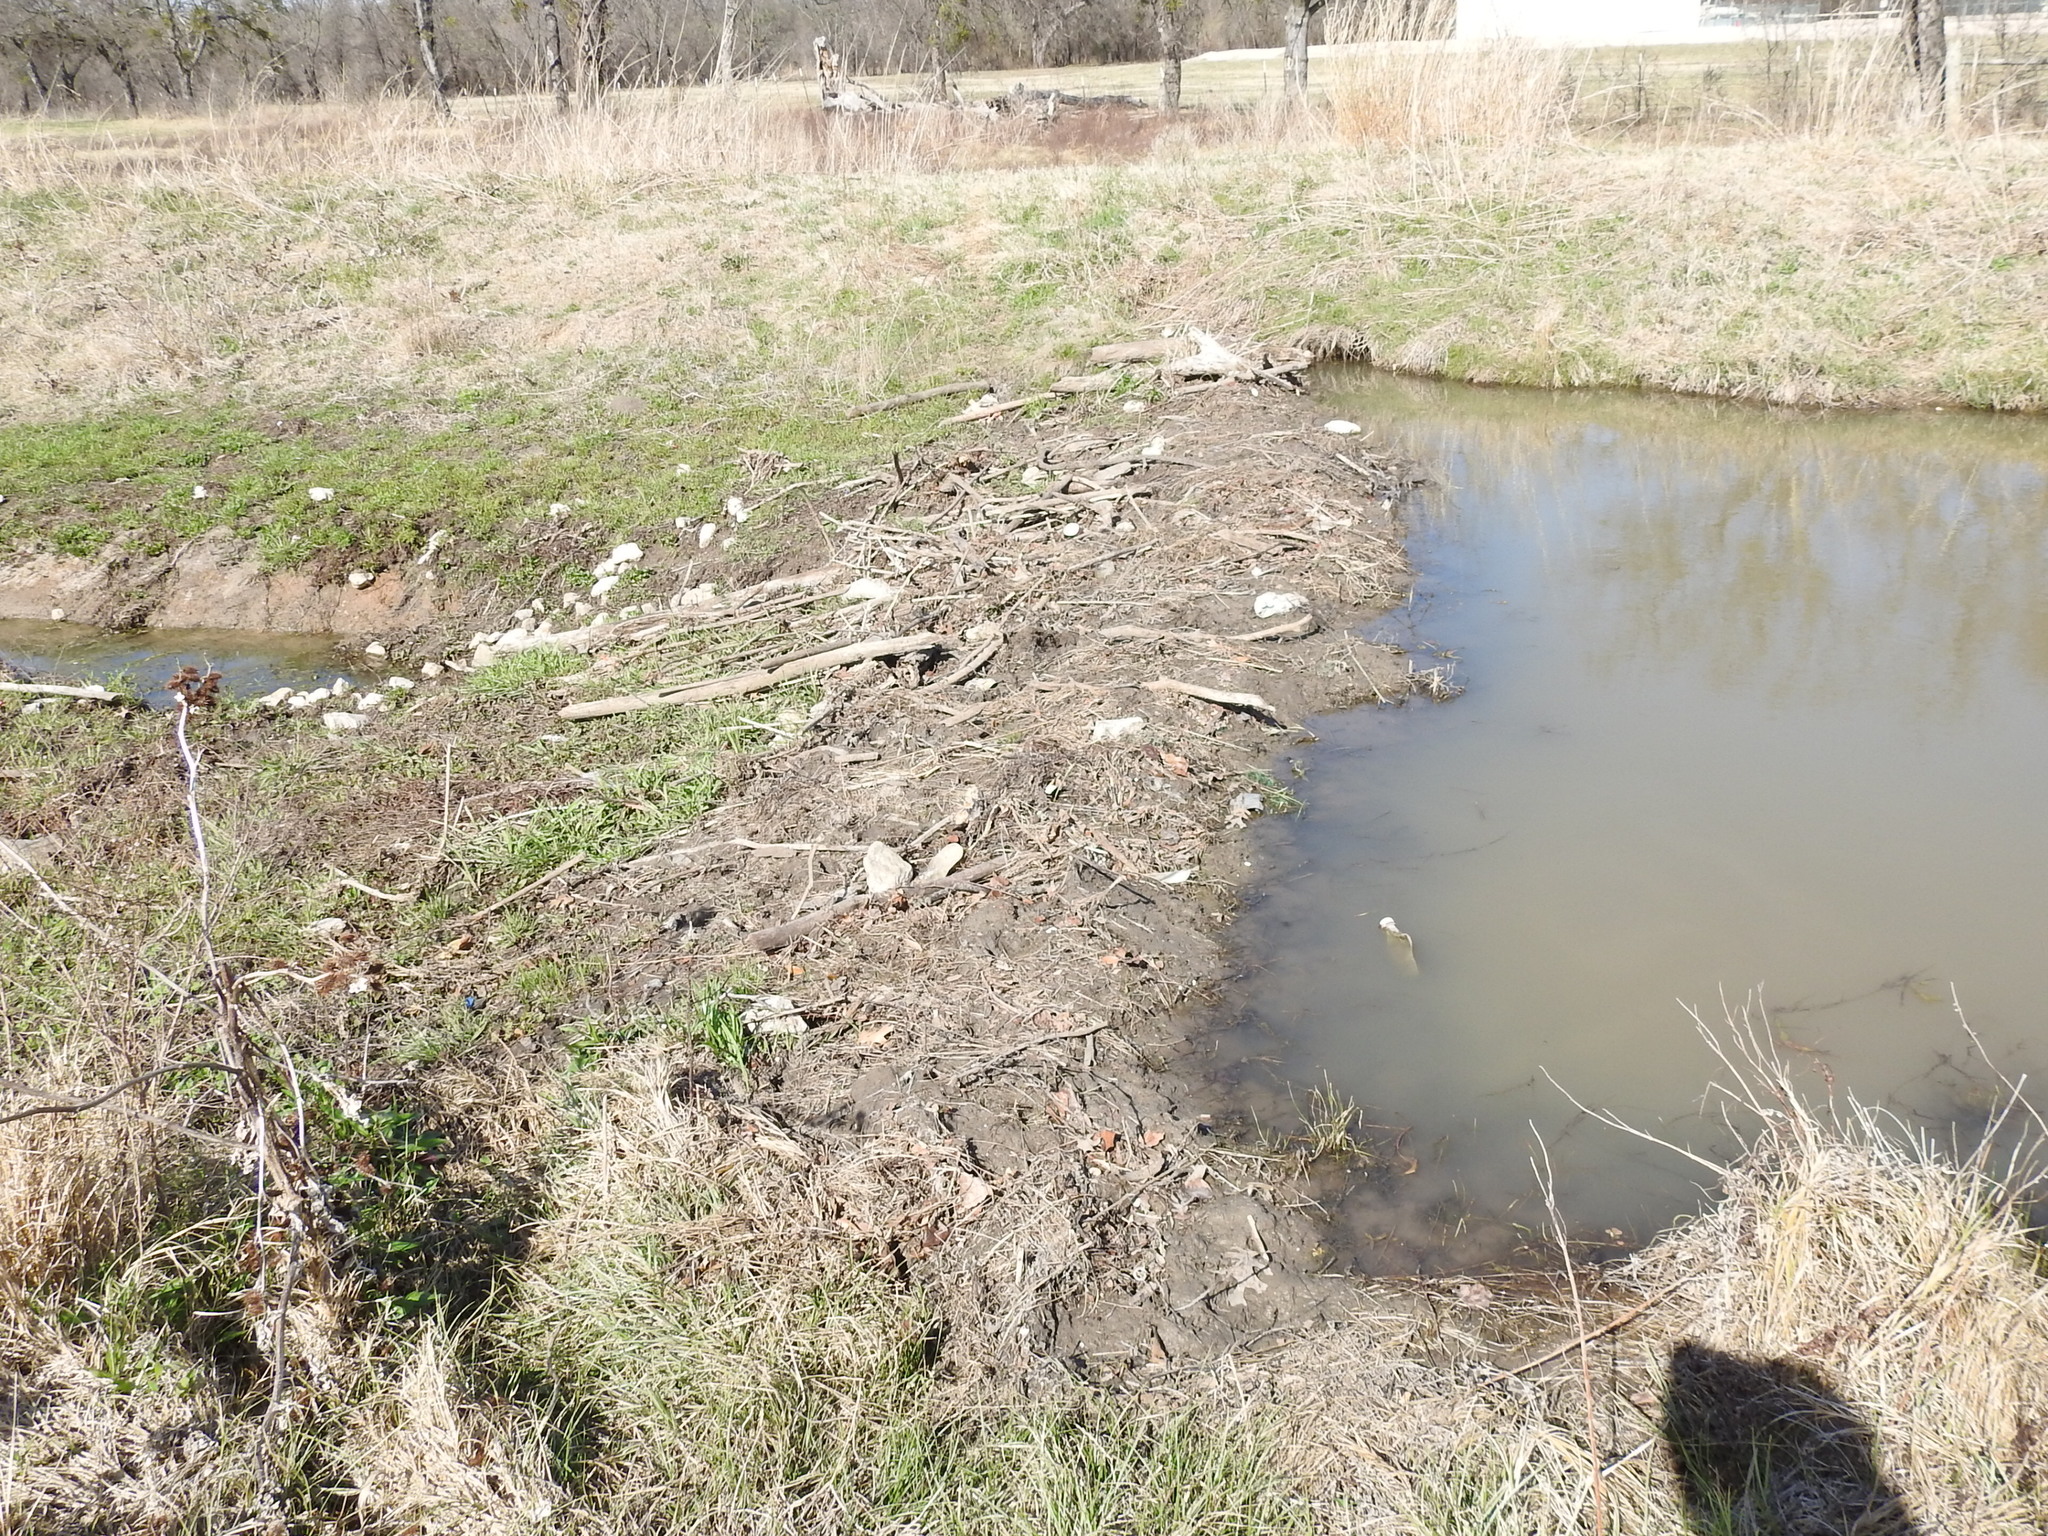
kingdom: Animalia
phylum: Chordata
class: Mammalia
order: Rodentia
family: Castoridae
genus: Castor
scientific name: Castor canadensis
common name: American beaver
